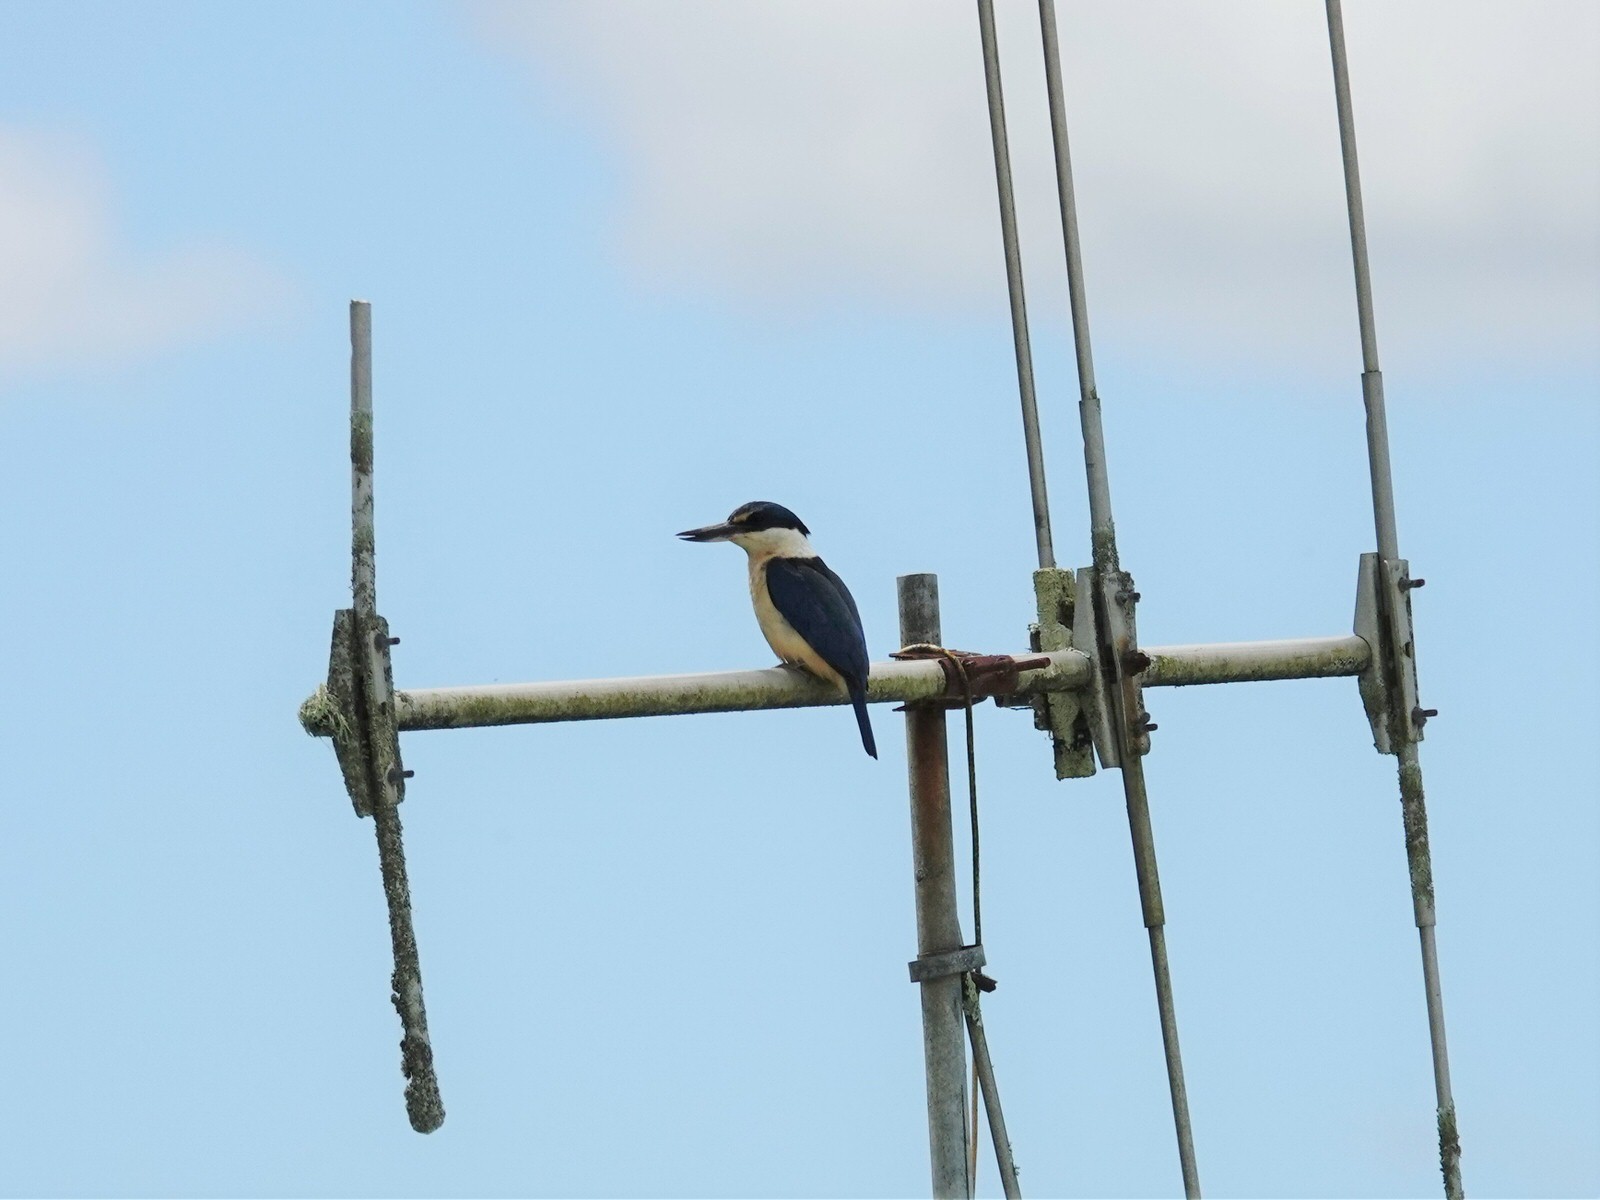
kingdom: Animalia
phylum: Chordata
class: Aves
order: Coraciiformes
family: Alcedinidae
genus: Todiramphus
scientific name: Todiramphus sanctus
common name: Sacred kingfisher
